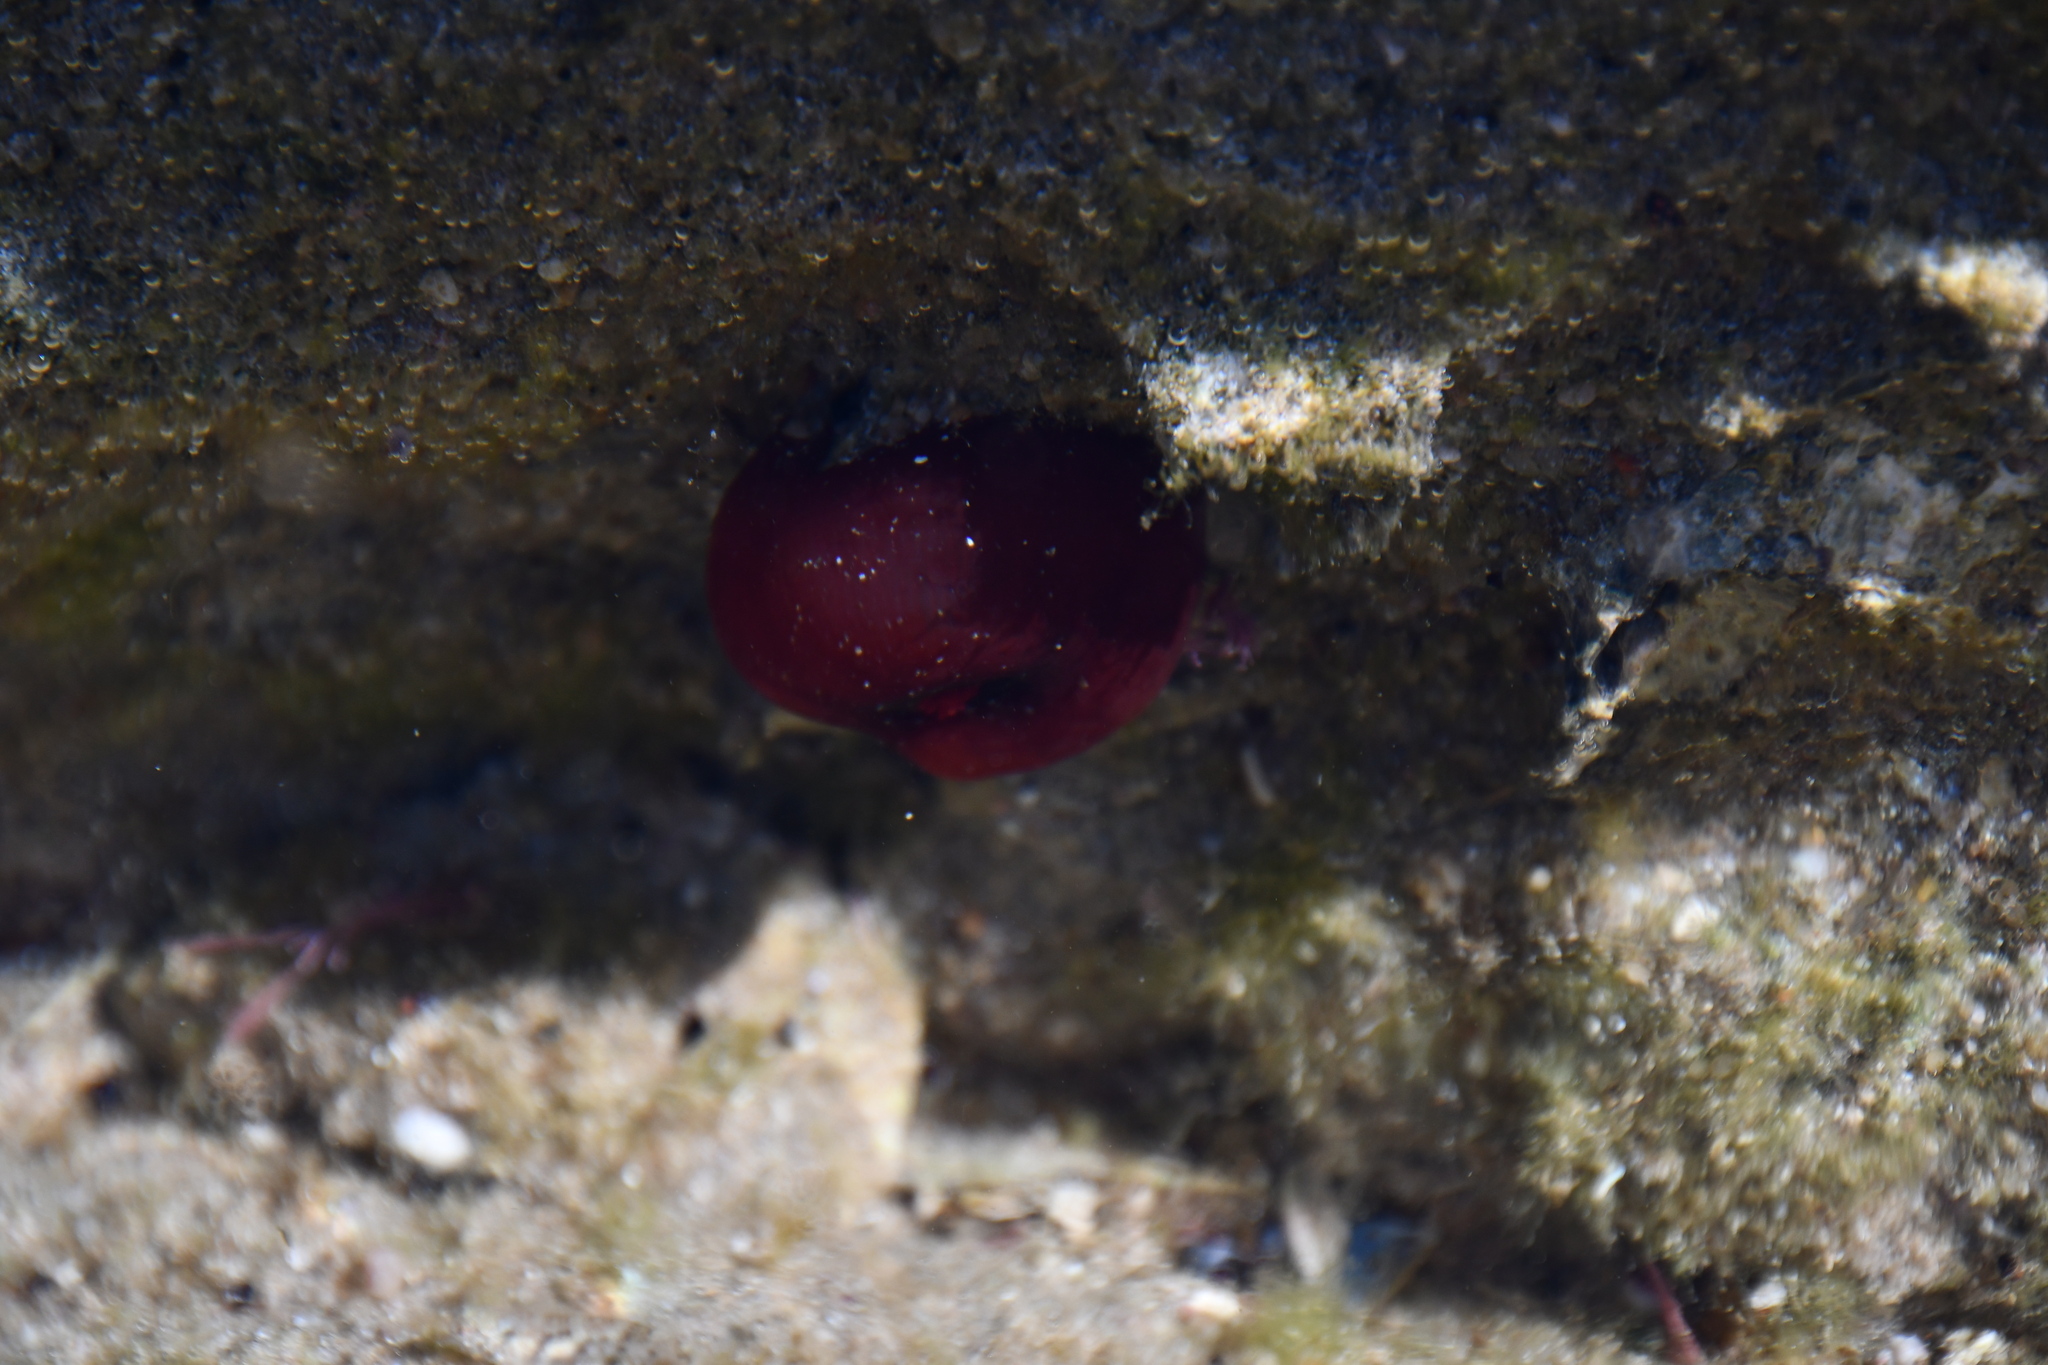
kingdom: Animalia
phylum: Cnidaria
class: Anthozoa
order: Actiniaria
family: Actiniidae
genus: Actinia
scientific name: Actinia tenebrosa
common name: Waratah anemone
